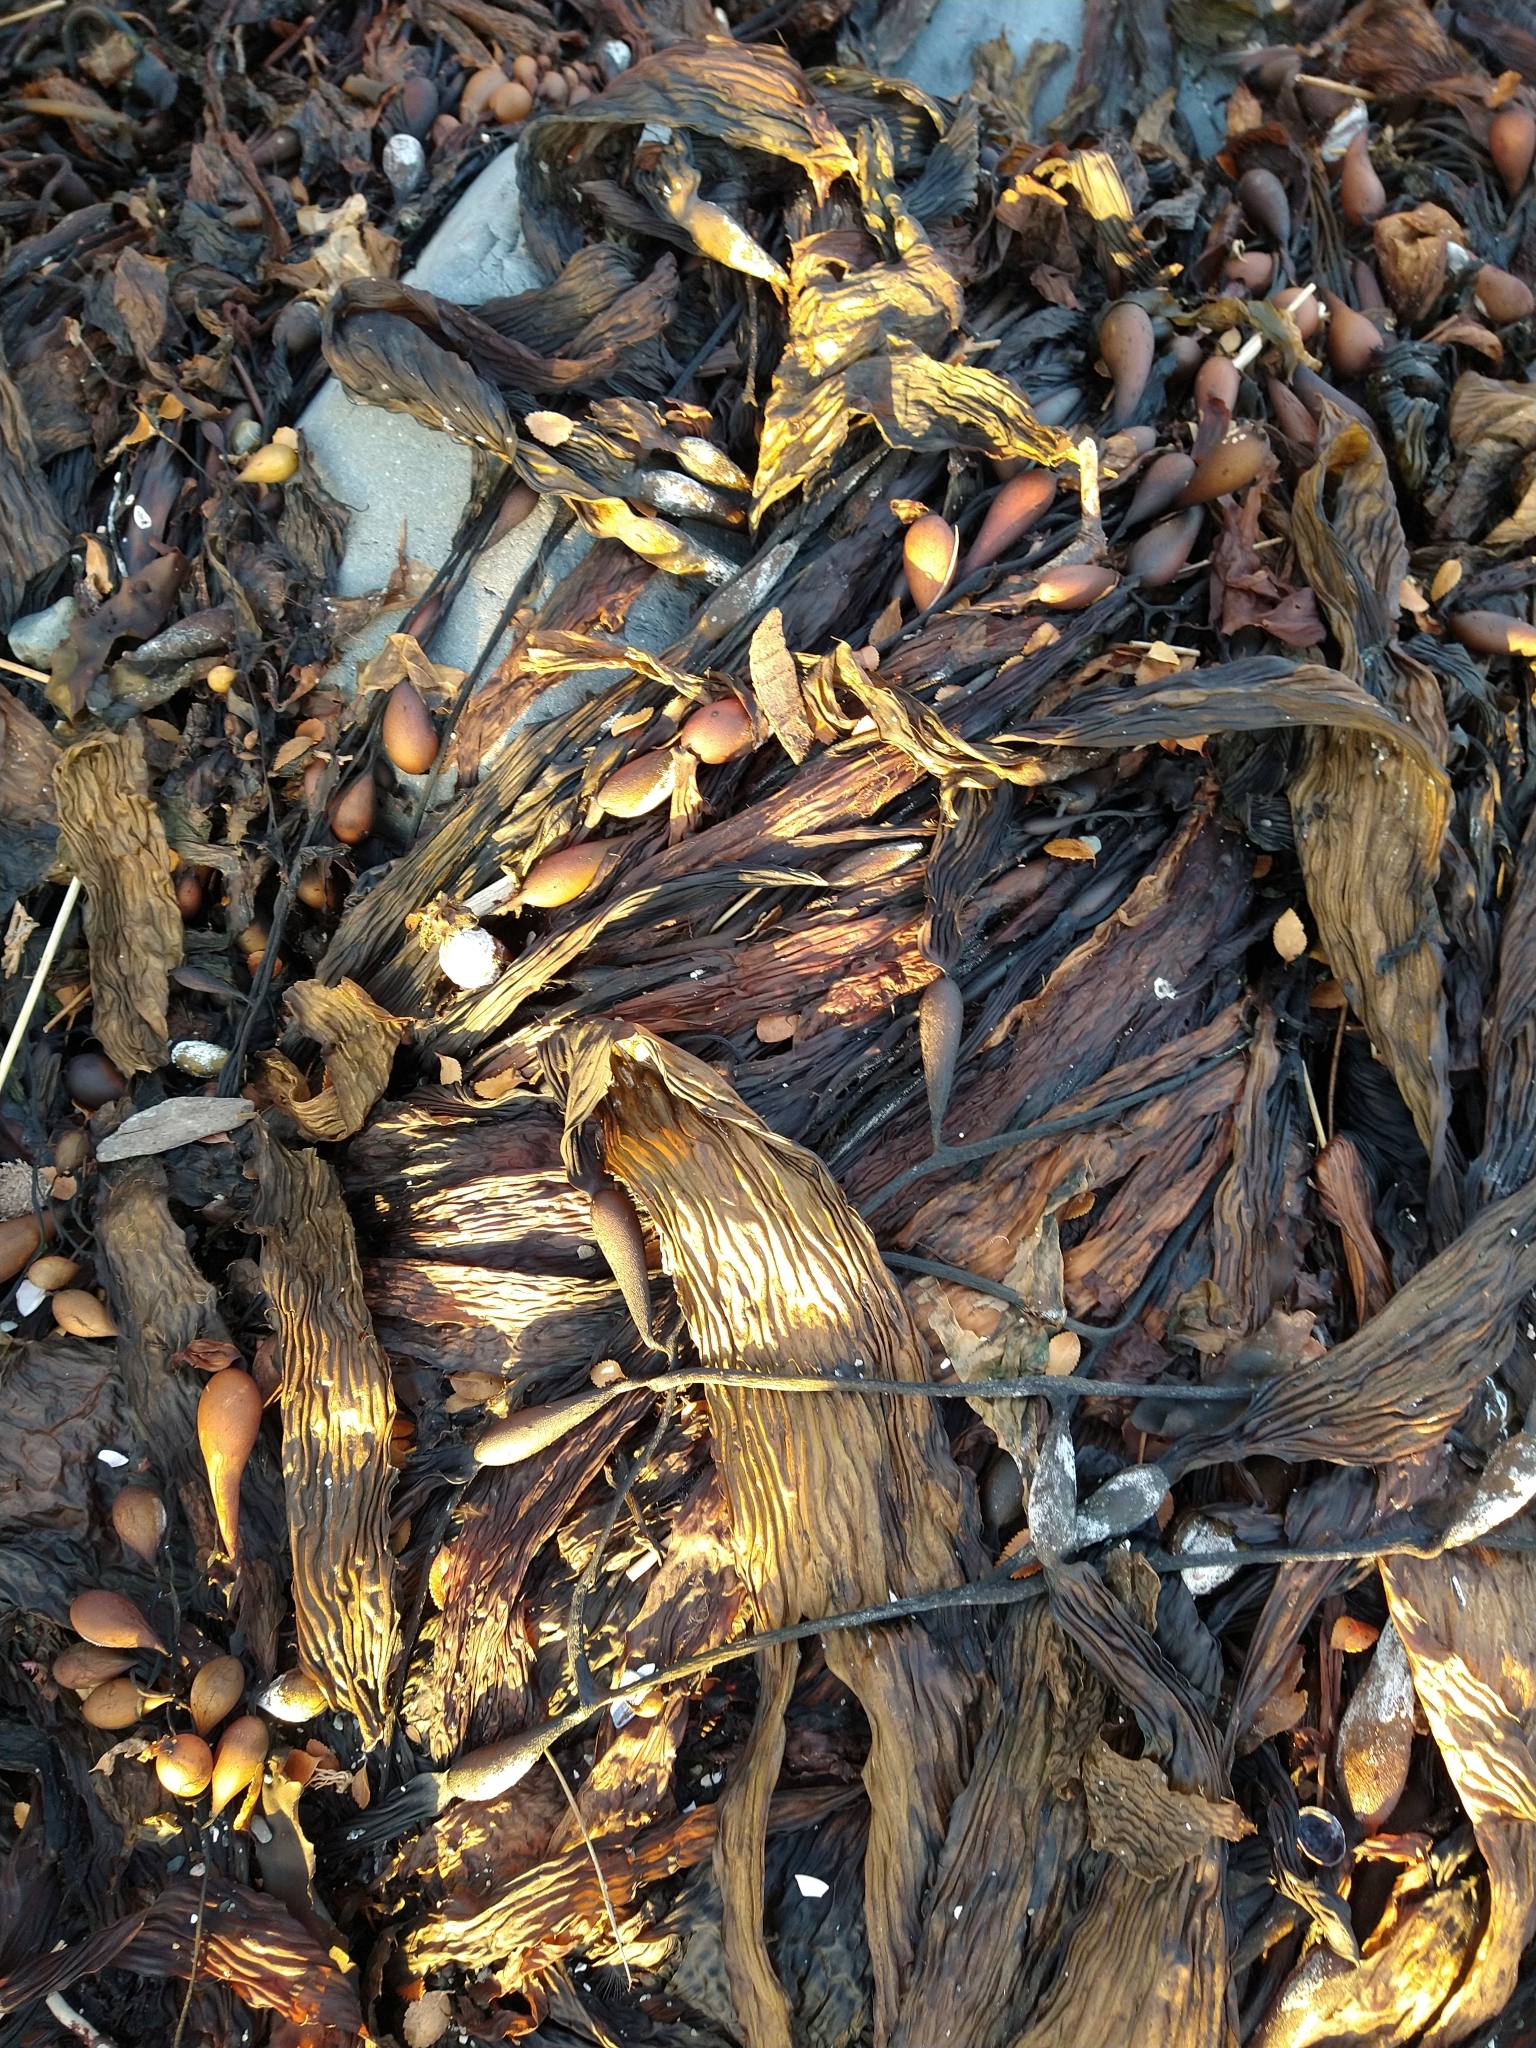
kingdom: Chromista
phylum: Ochrophyta
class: Phaeophyceae
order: Laminariales
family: Laminariaceae
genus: Macrocystis
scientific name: Macrocystis pyrifera
